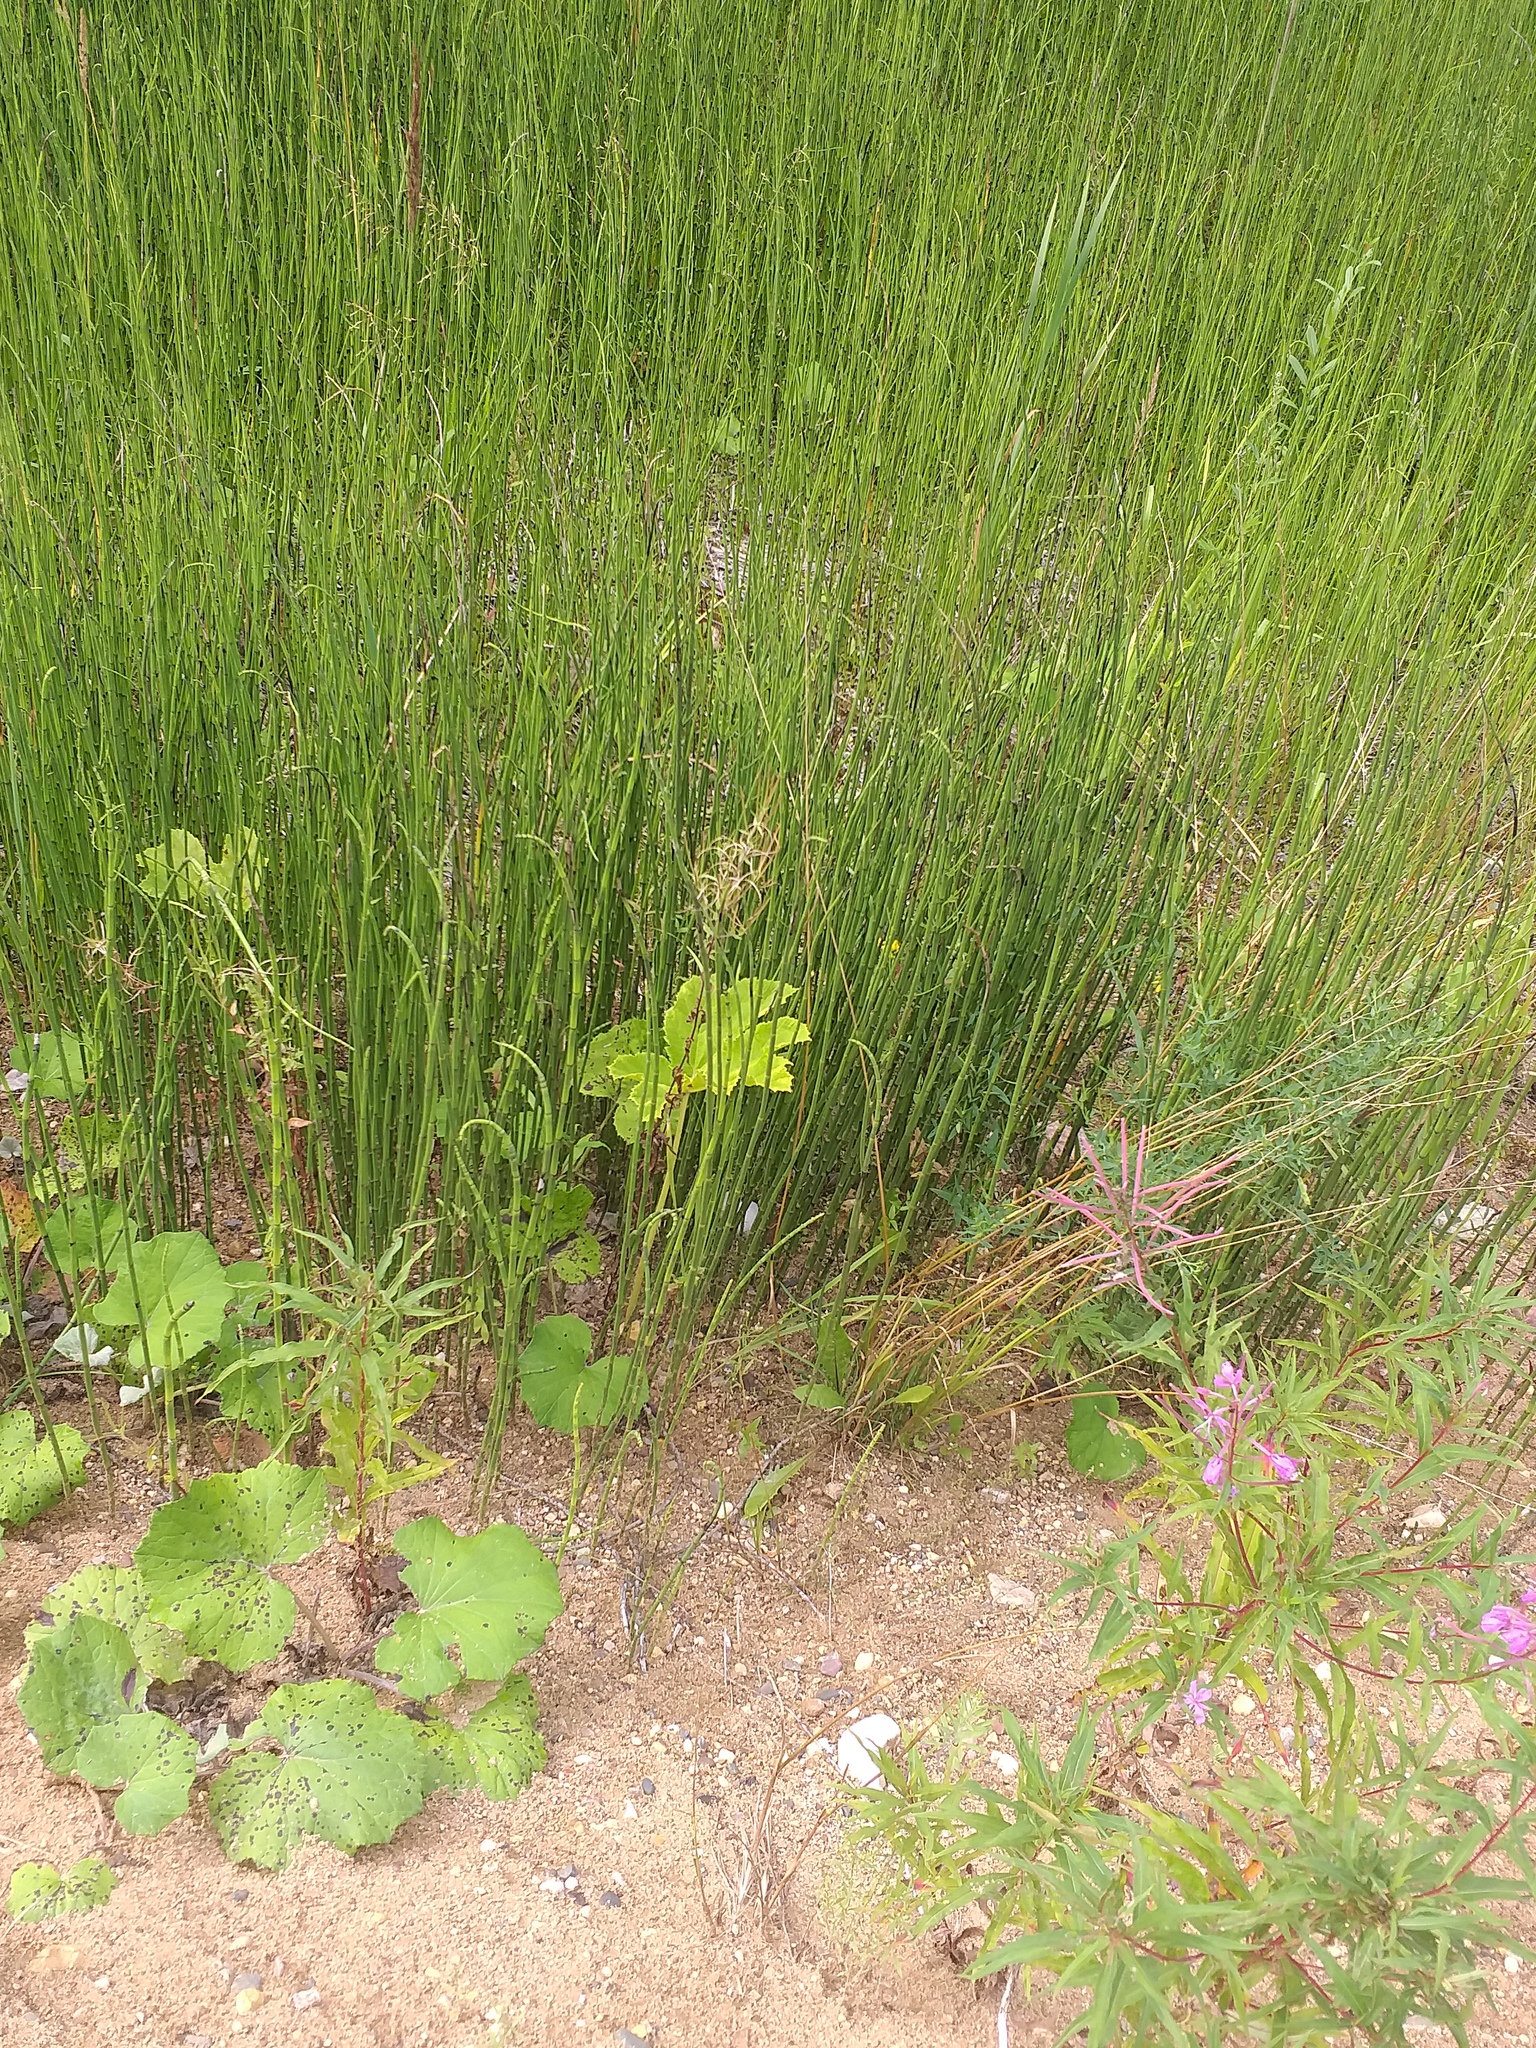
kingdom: Plantae
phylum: Tracheophyta
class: Polypodiopsida
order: Equisetales
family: Equisetaceae
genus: Equisetum
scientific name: Equisetum fluviatile
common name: Water horsetail
